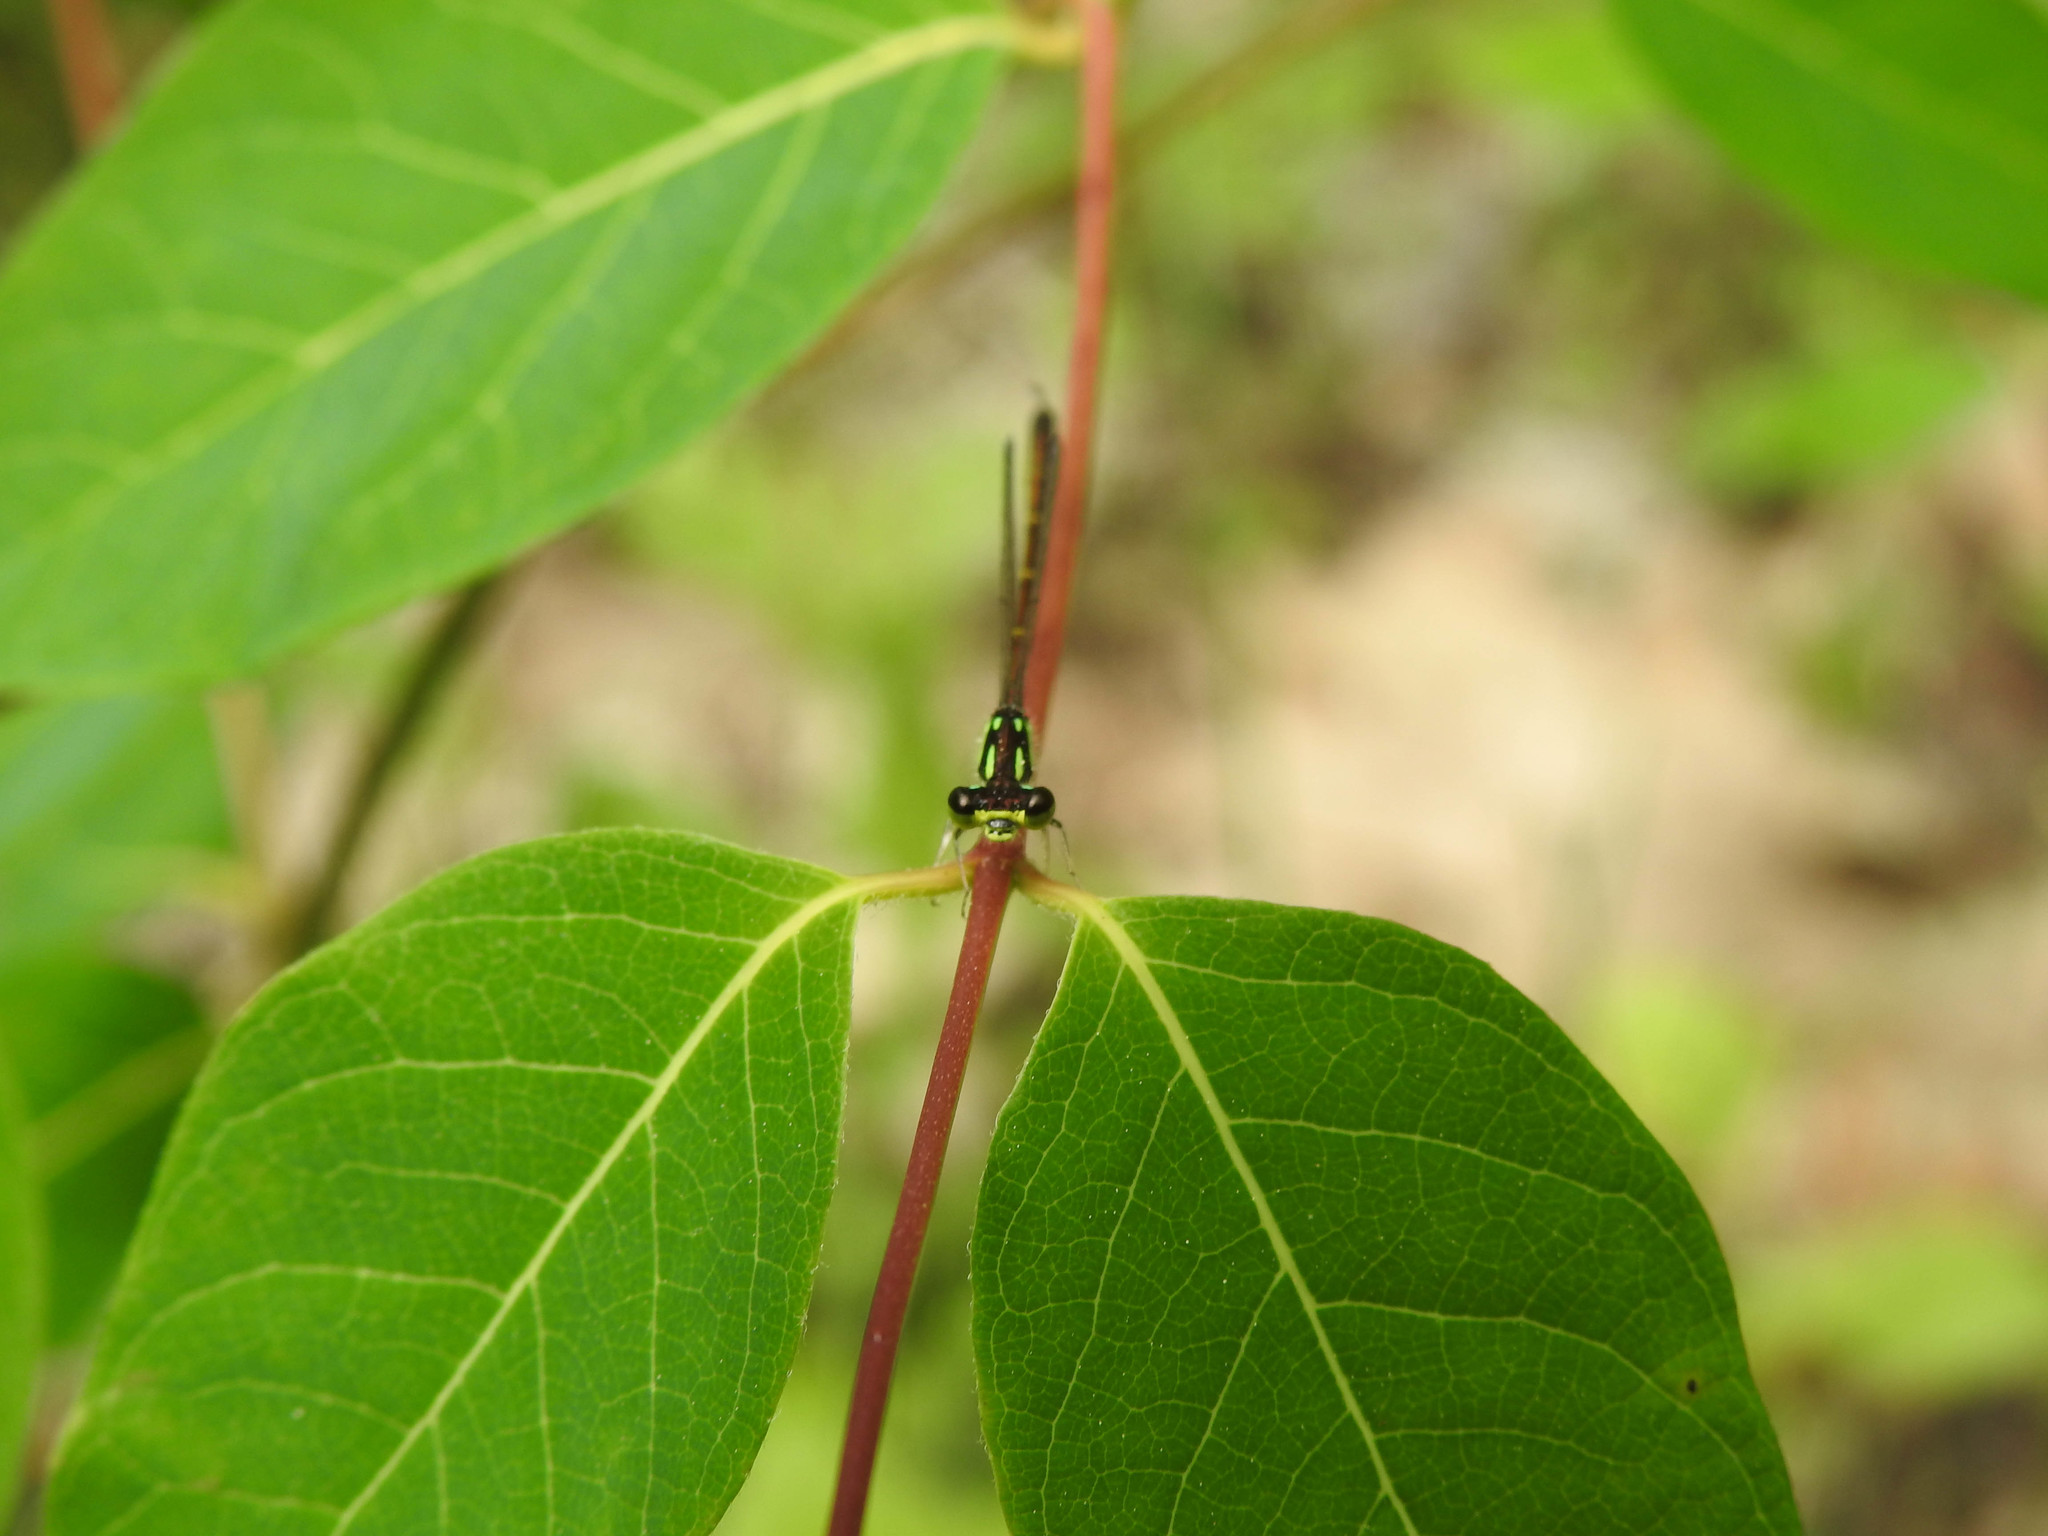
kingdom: Animalia
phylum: Arthropoda
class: Insecta
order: Odonata
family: Coenagrionidae
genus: Ischnura
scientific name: Ischnura posita
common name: Fragile forktail
